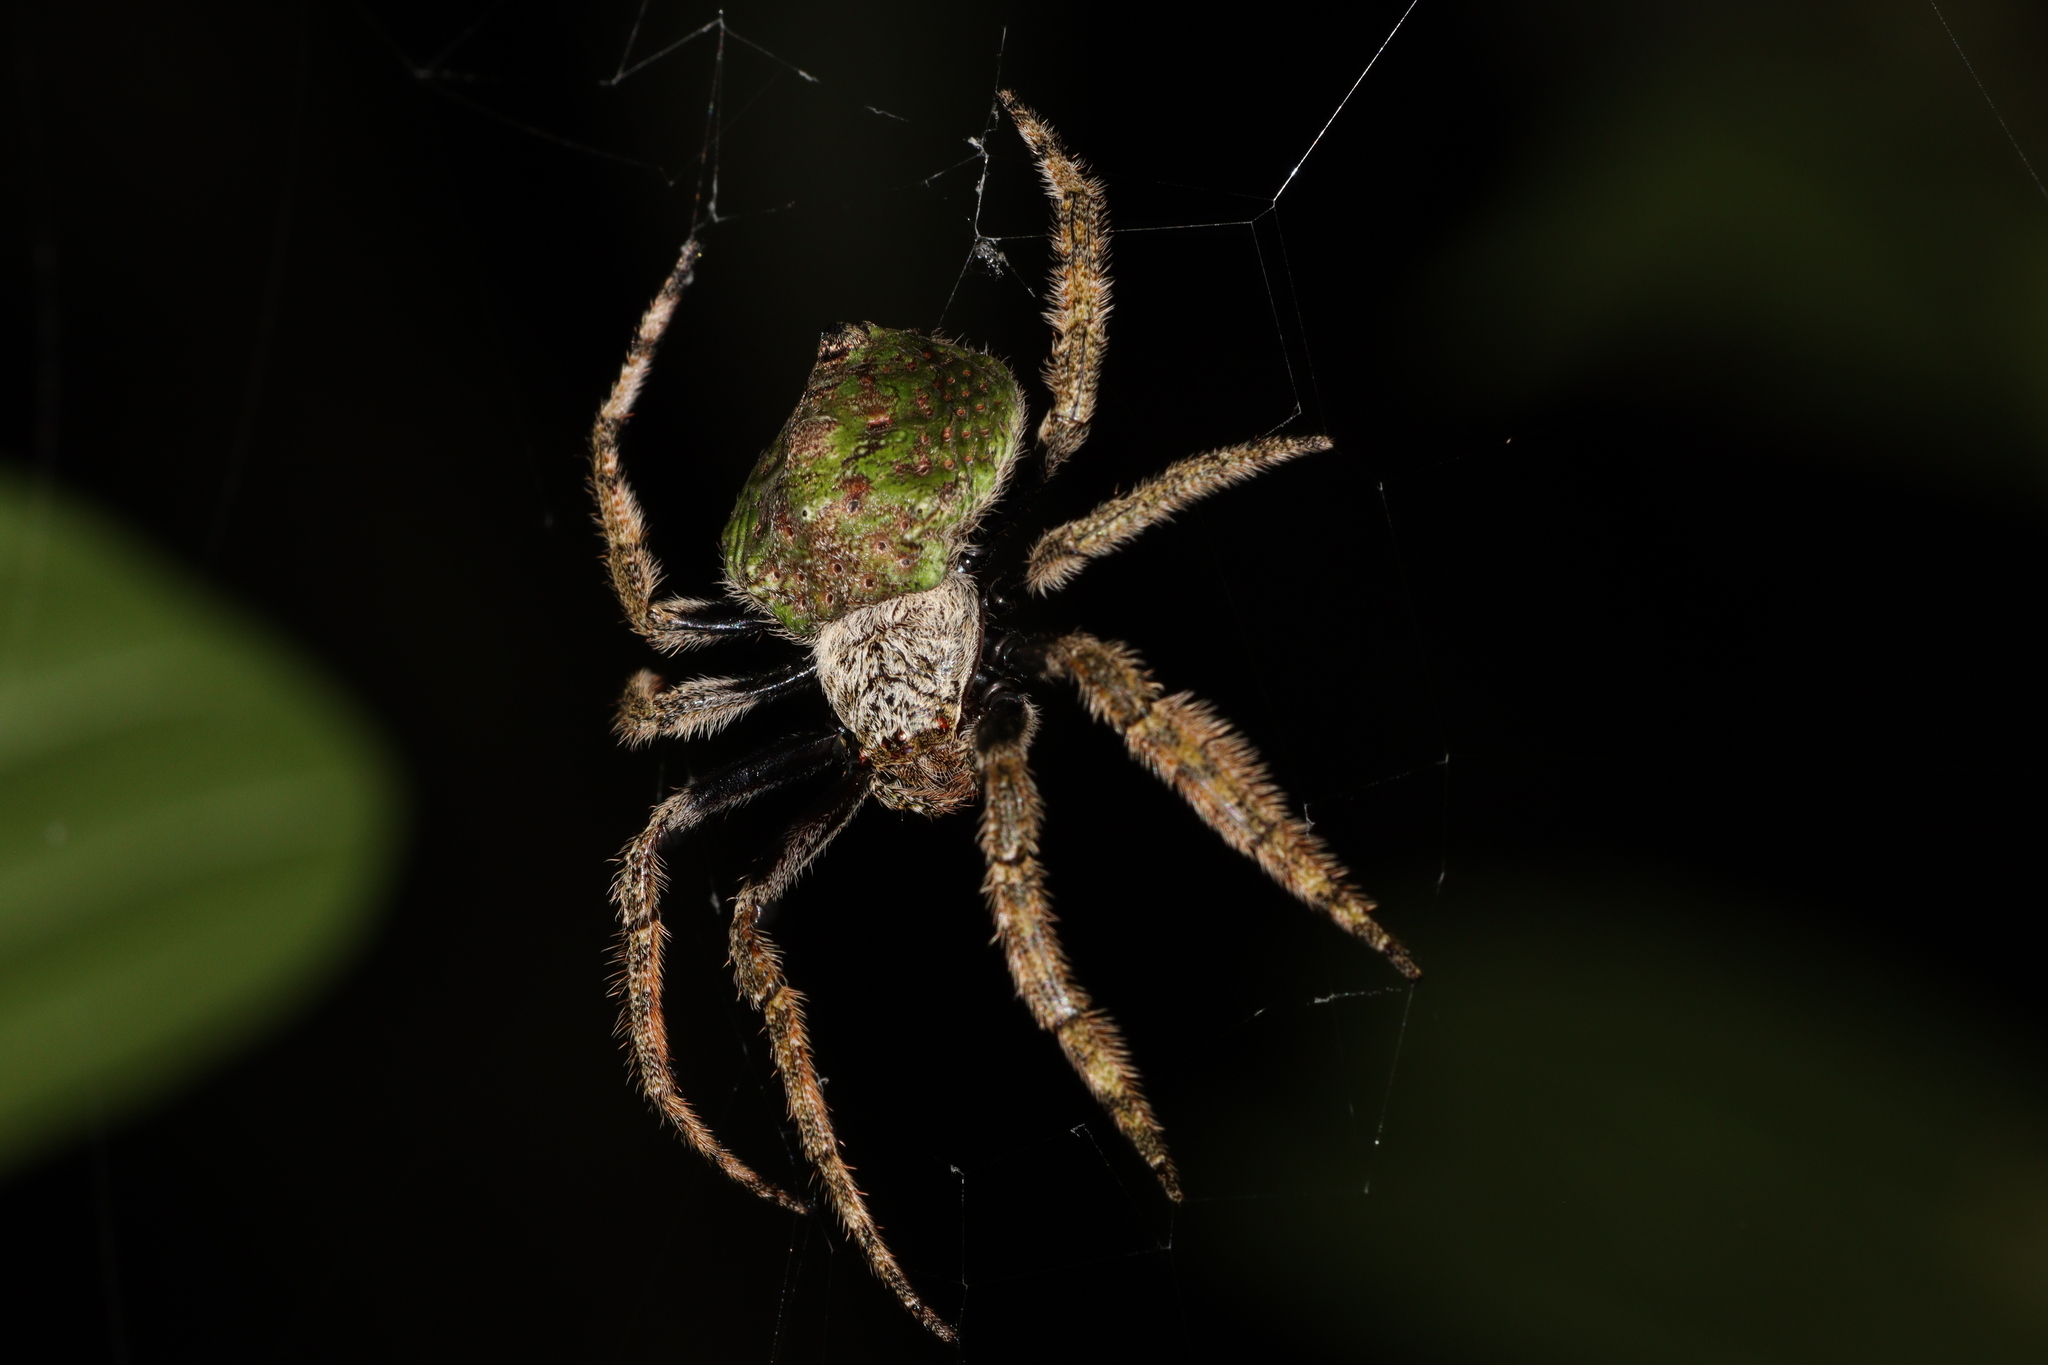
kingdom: Animalia
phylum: Arthropoda
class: Arachnida
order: Araneae
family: Araneidae
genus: Talthybia
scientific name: Talthybia depressa
